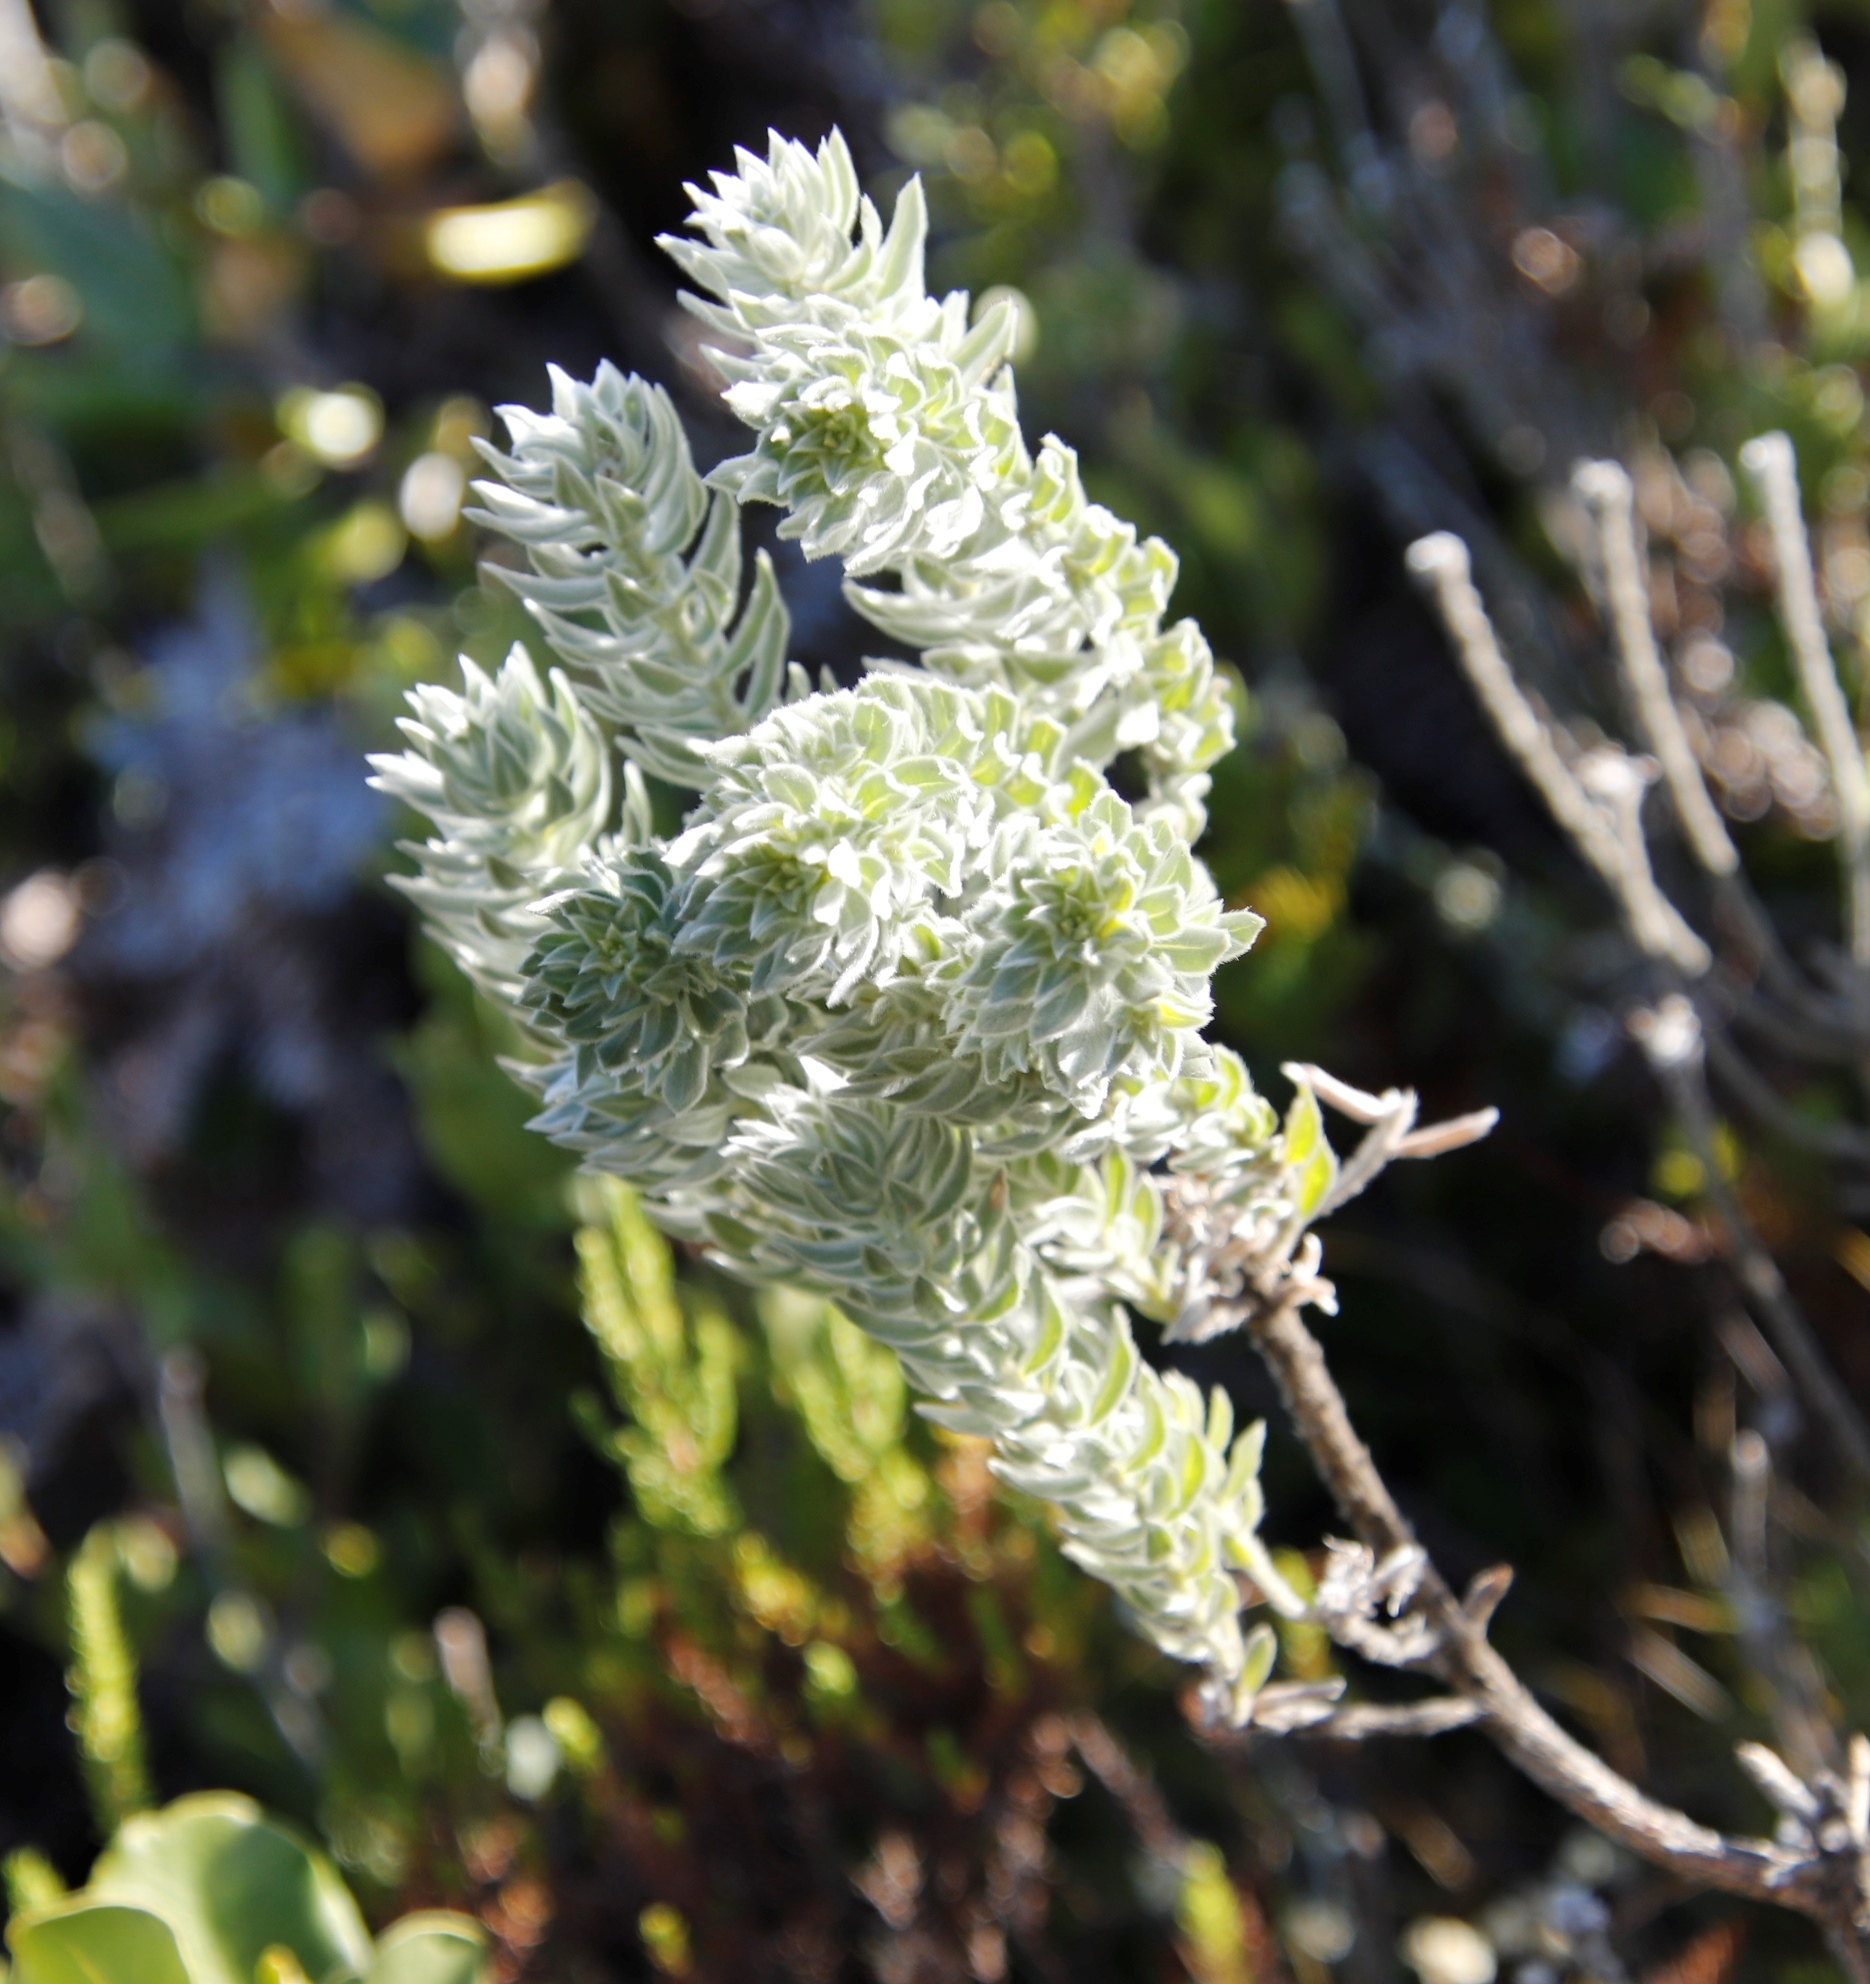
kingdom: Plantae
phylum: Tracheophyta
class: Magnoliopsida
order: Fabales
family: Fabaceae
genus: Xiphotheca
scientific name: Xiphotheca fruticosa
